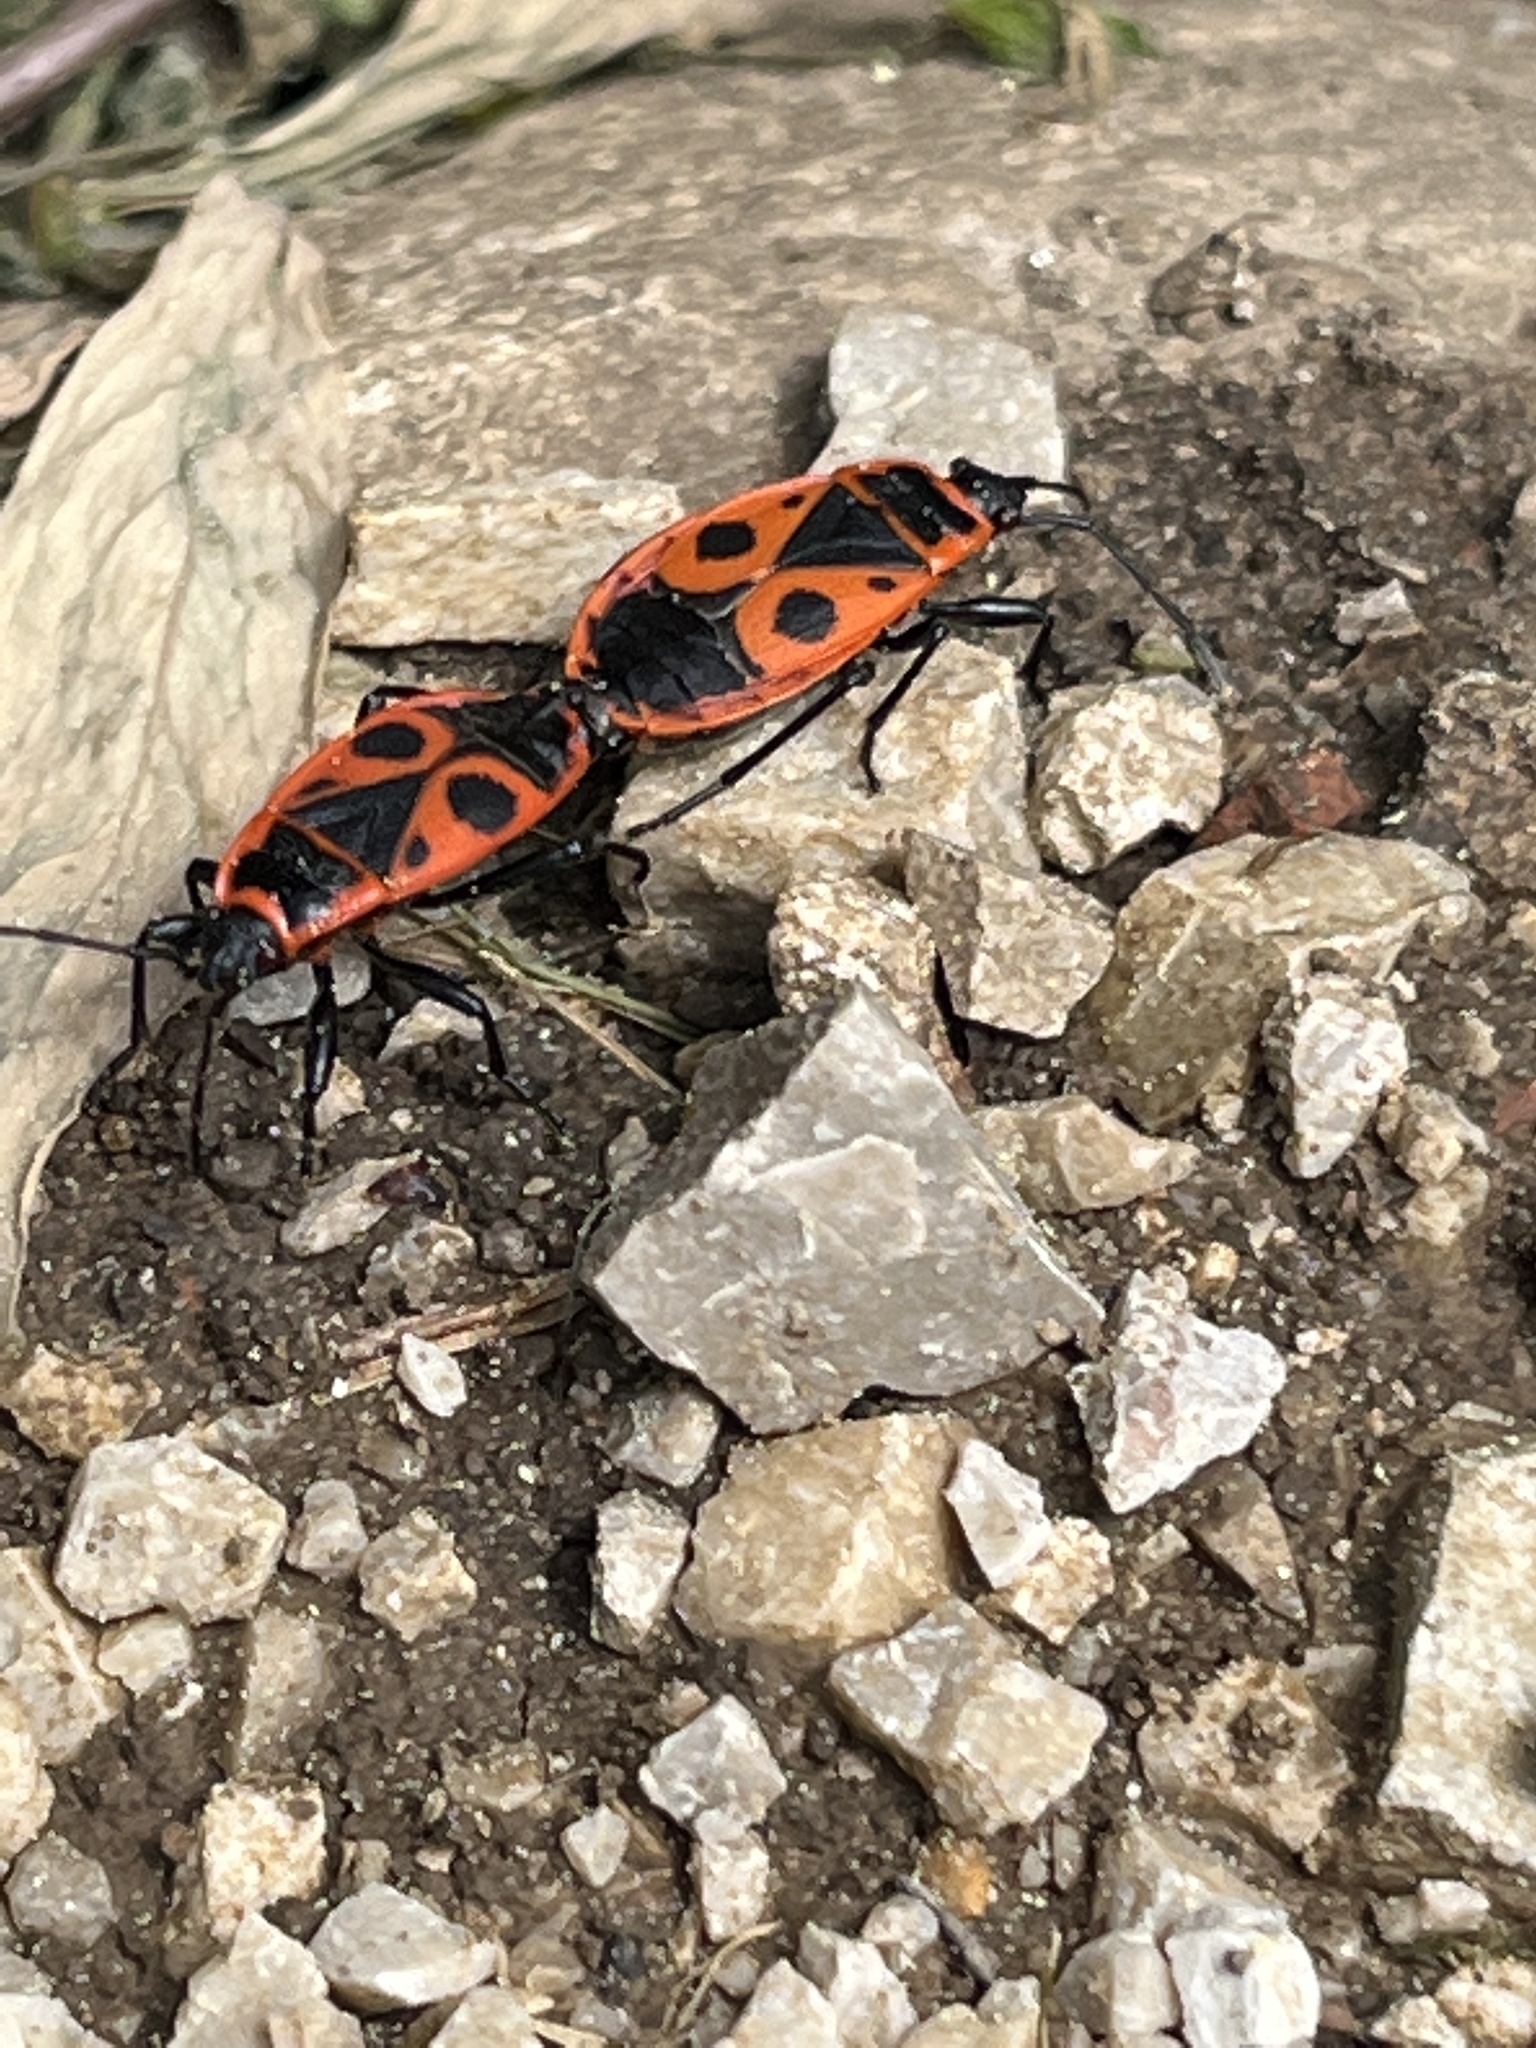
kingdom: Animalia
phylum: Arthropoda
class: Insecta
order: Hemiptera
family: Pyrrhocoridae
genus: Pyrrhocoris
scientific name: Pyrrhocoris apterus
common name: Firebug
